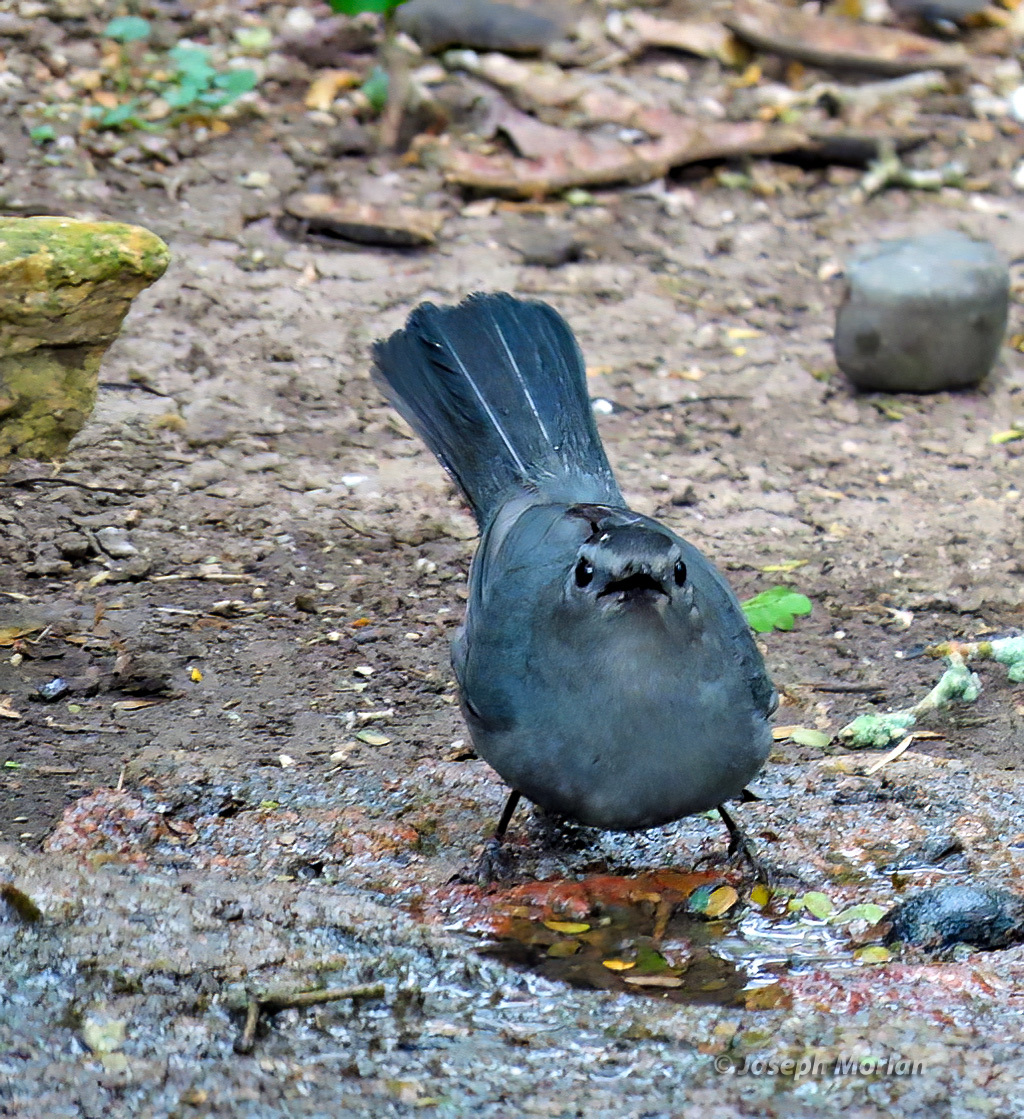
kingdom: Animalia
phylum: Chordata
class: Aves
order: Passeriformes
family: Mimidae
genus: Dumetella
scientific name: Dumetella carolinensis
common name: Gray catbird
